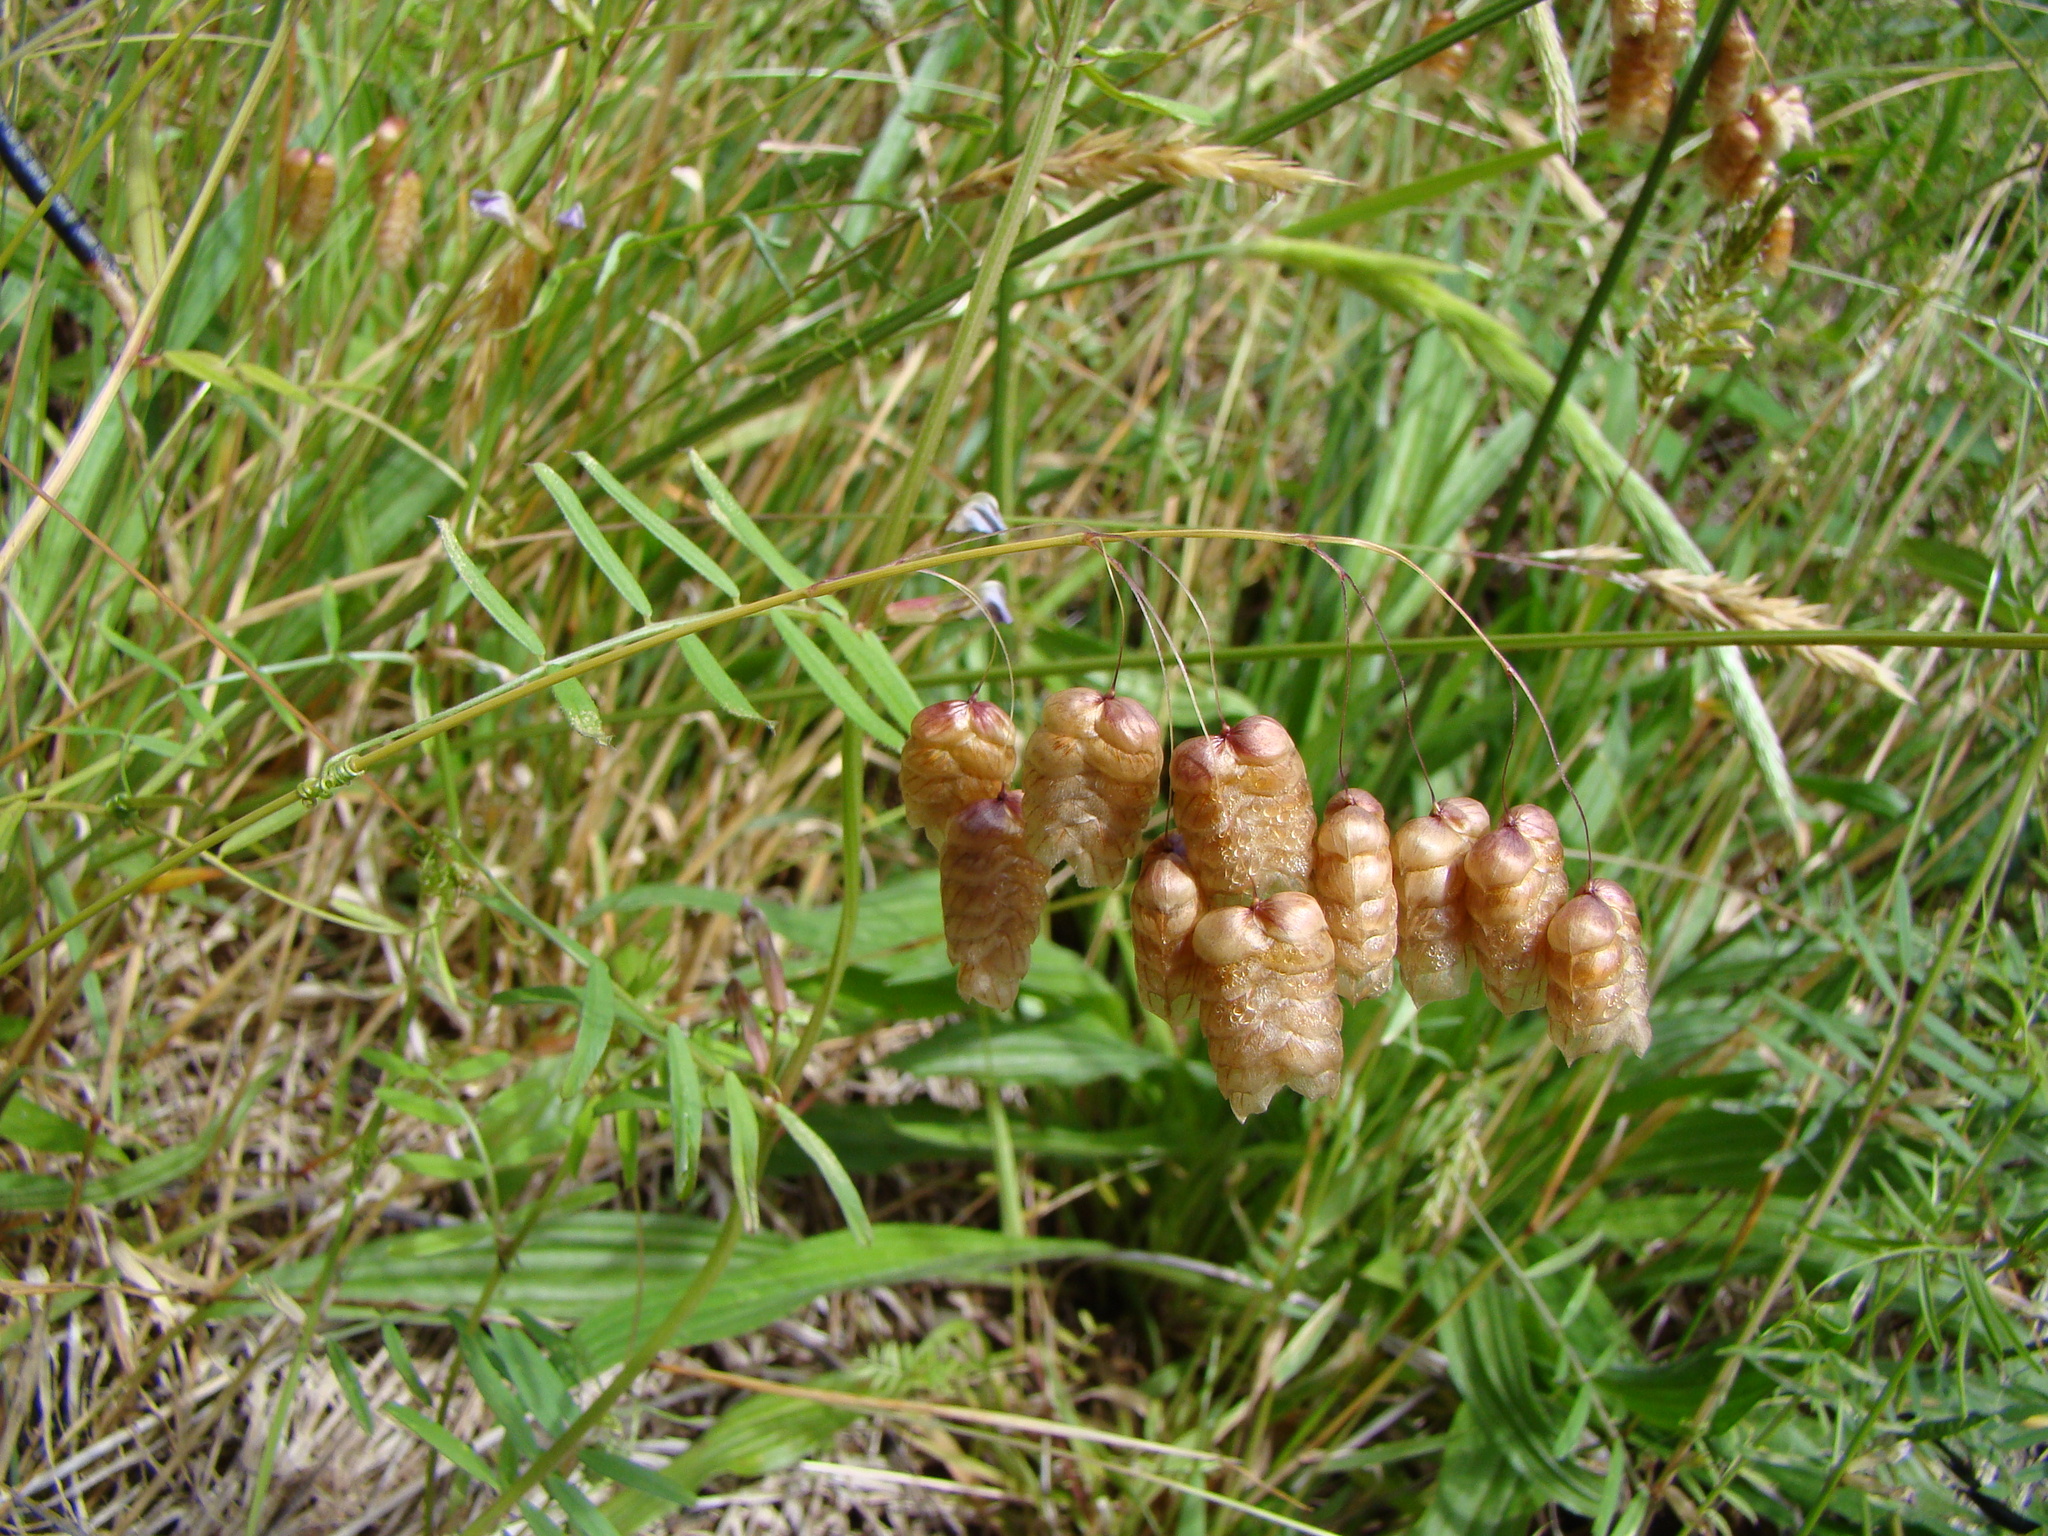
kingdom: Plantae
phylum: Tracheophyta
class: Liliopsida
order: Poales
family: Poaceae
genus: Briza
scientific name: Briza maxima
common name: Big quakinggrass
